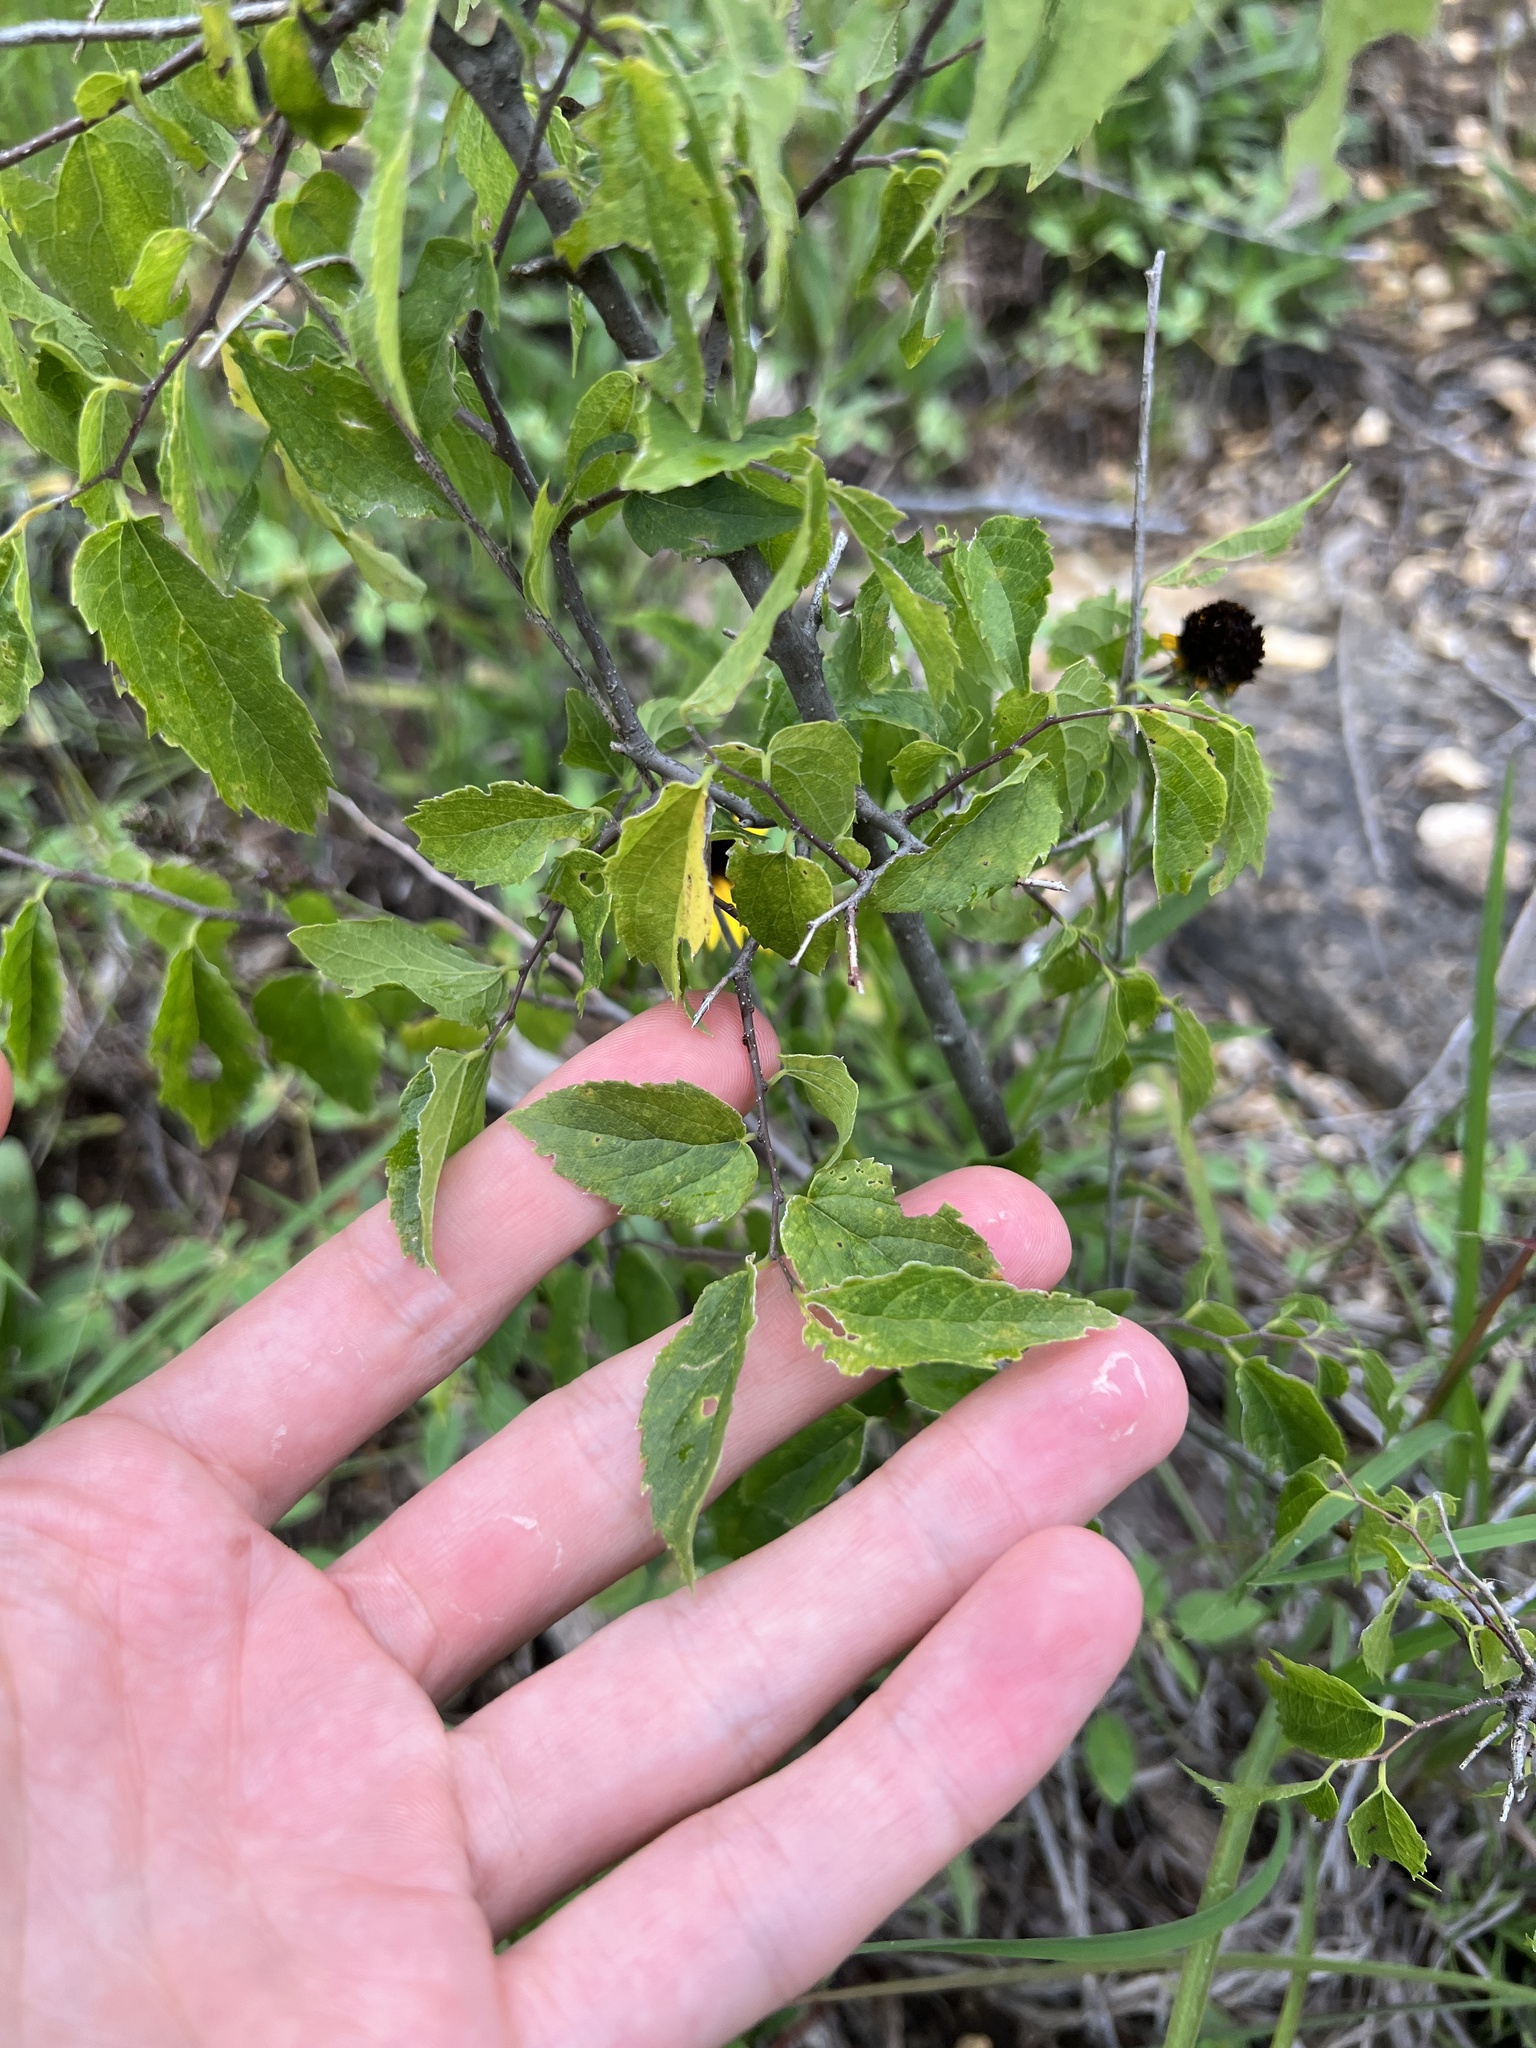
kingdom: Plantae
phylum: Tracheophyta
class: Magnoliopsida
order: Rosales
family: Cannabaceae
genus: Celtis
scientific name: Celtis tenuifolia
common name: Georgia hackberry
